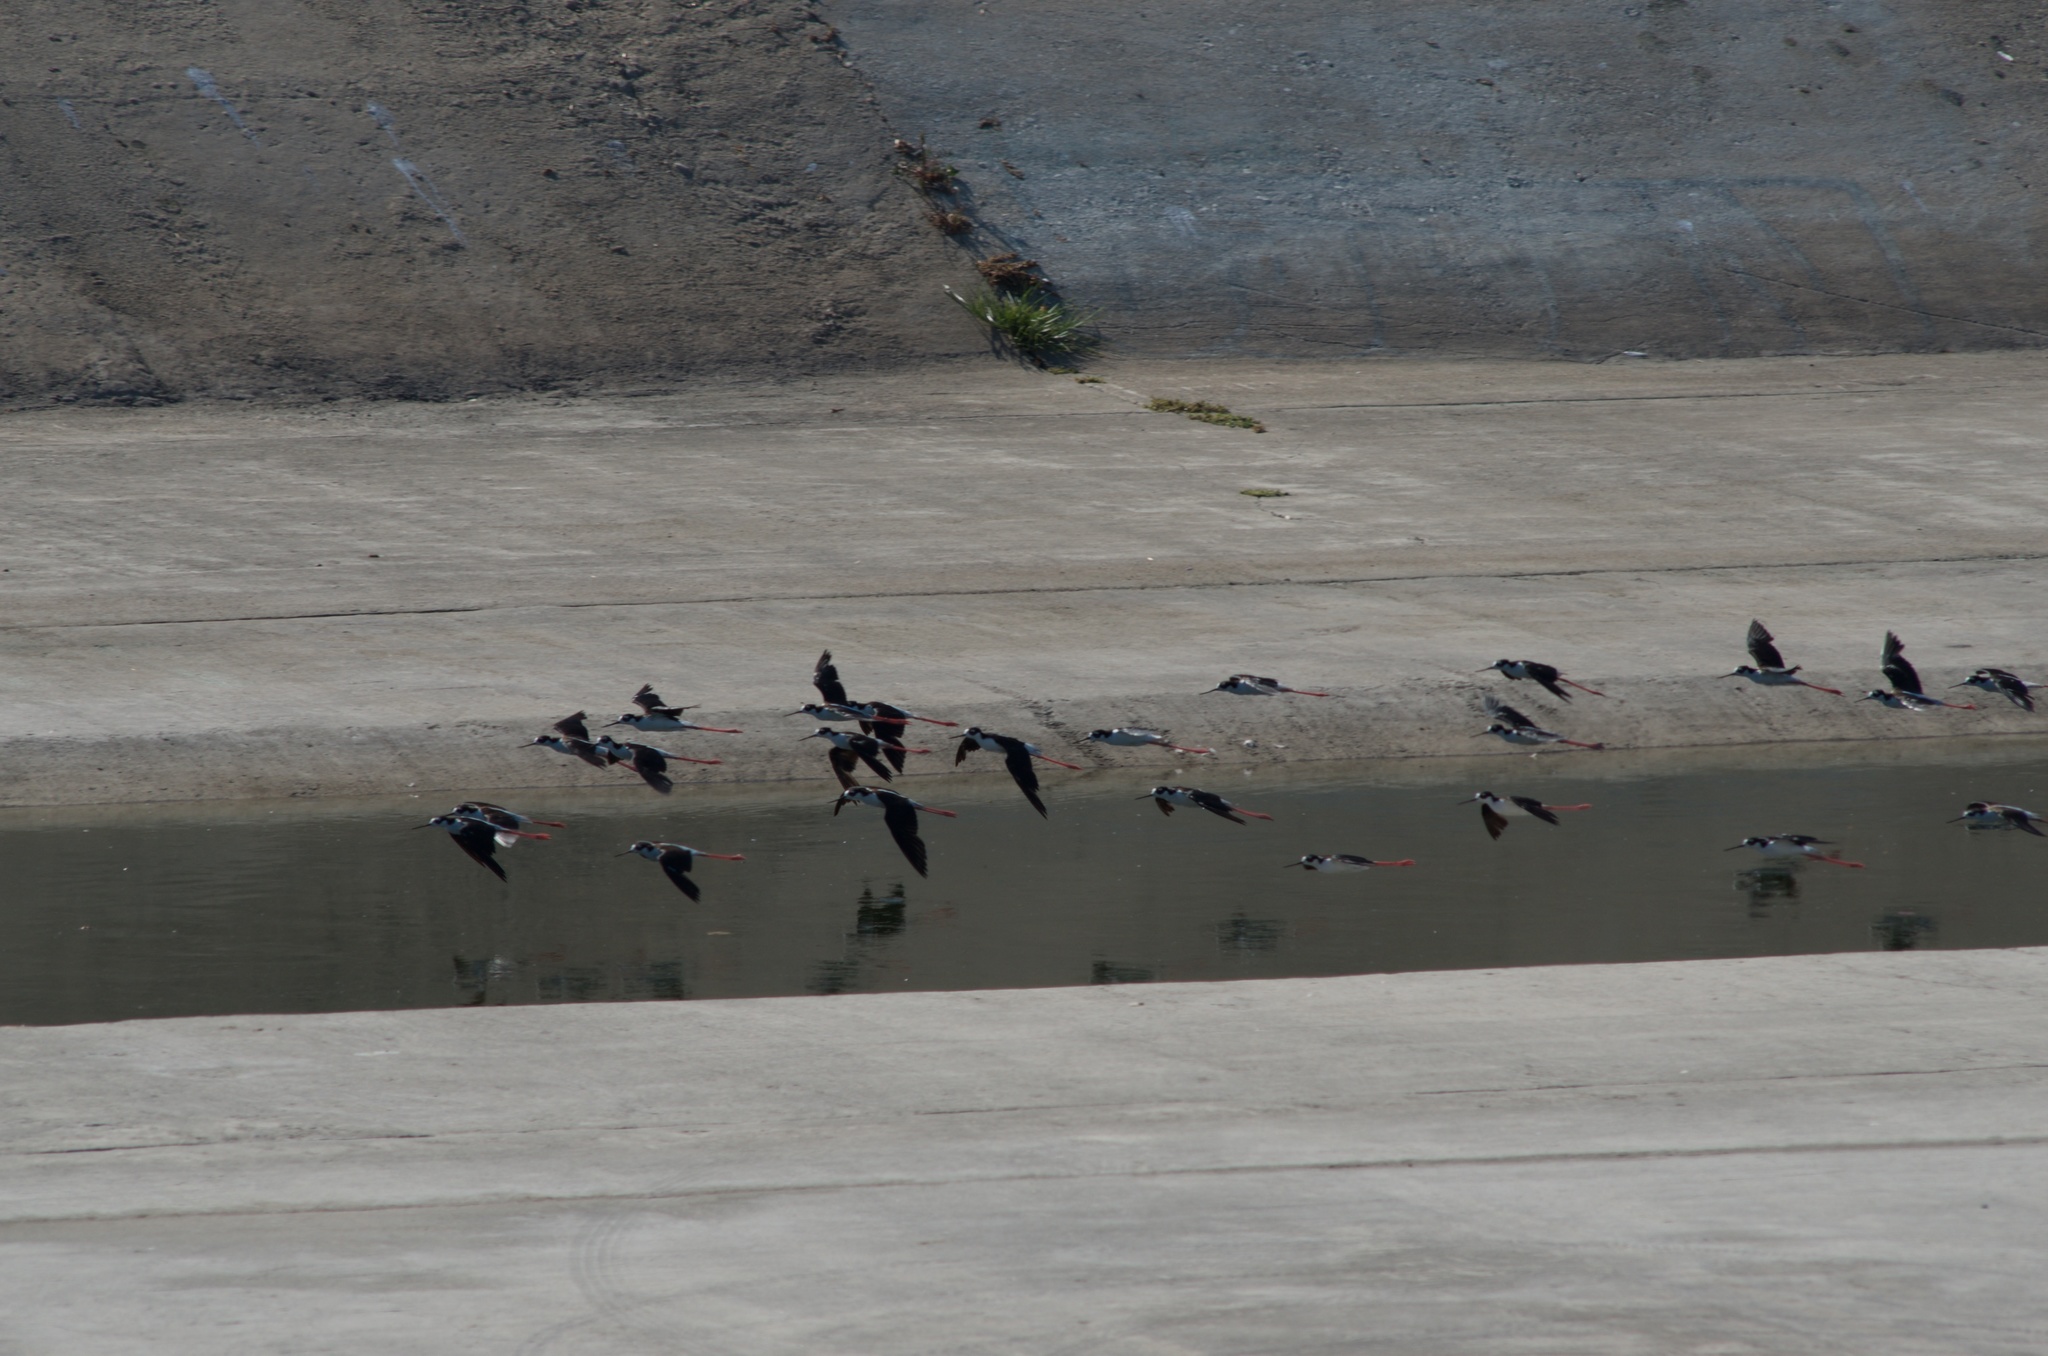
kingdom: Animalia
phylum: Chordata
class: Aves
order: Charadriiformes
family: Recurvirostridae
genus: Himantopus
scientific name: Himantopus mexicanus
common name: Black-necked stilt
